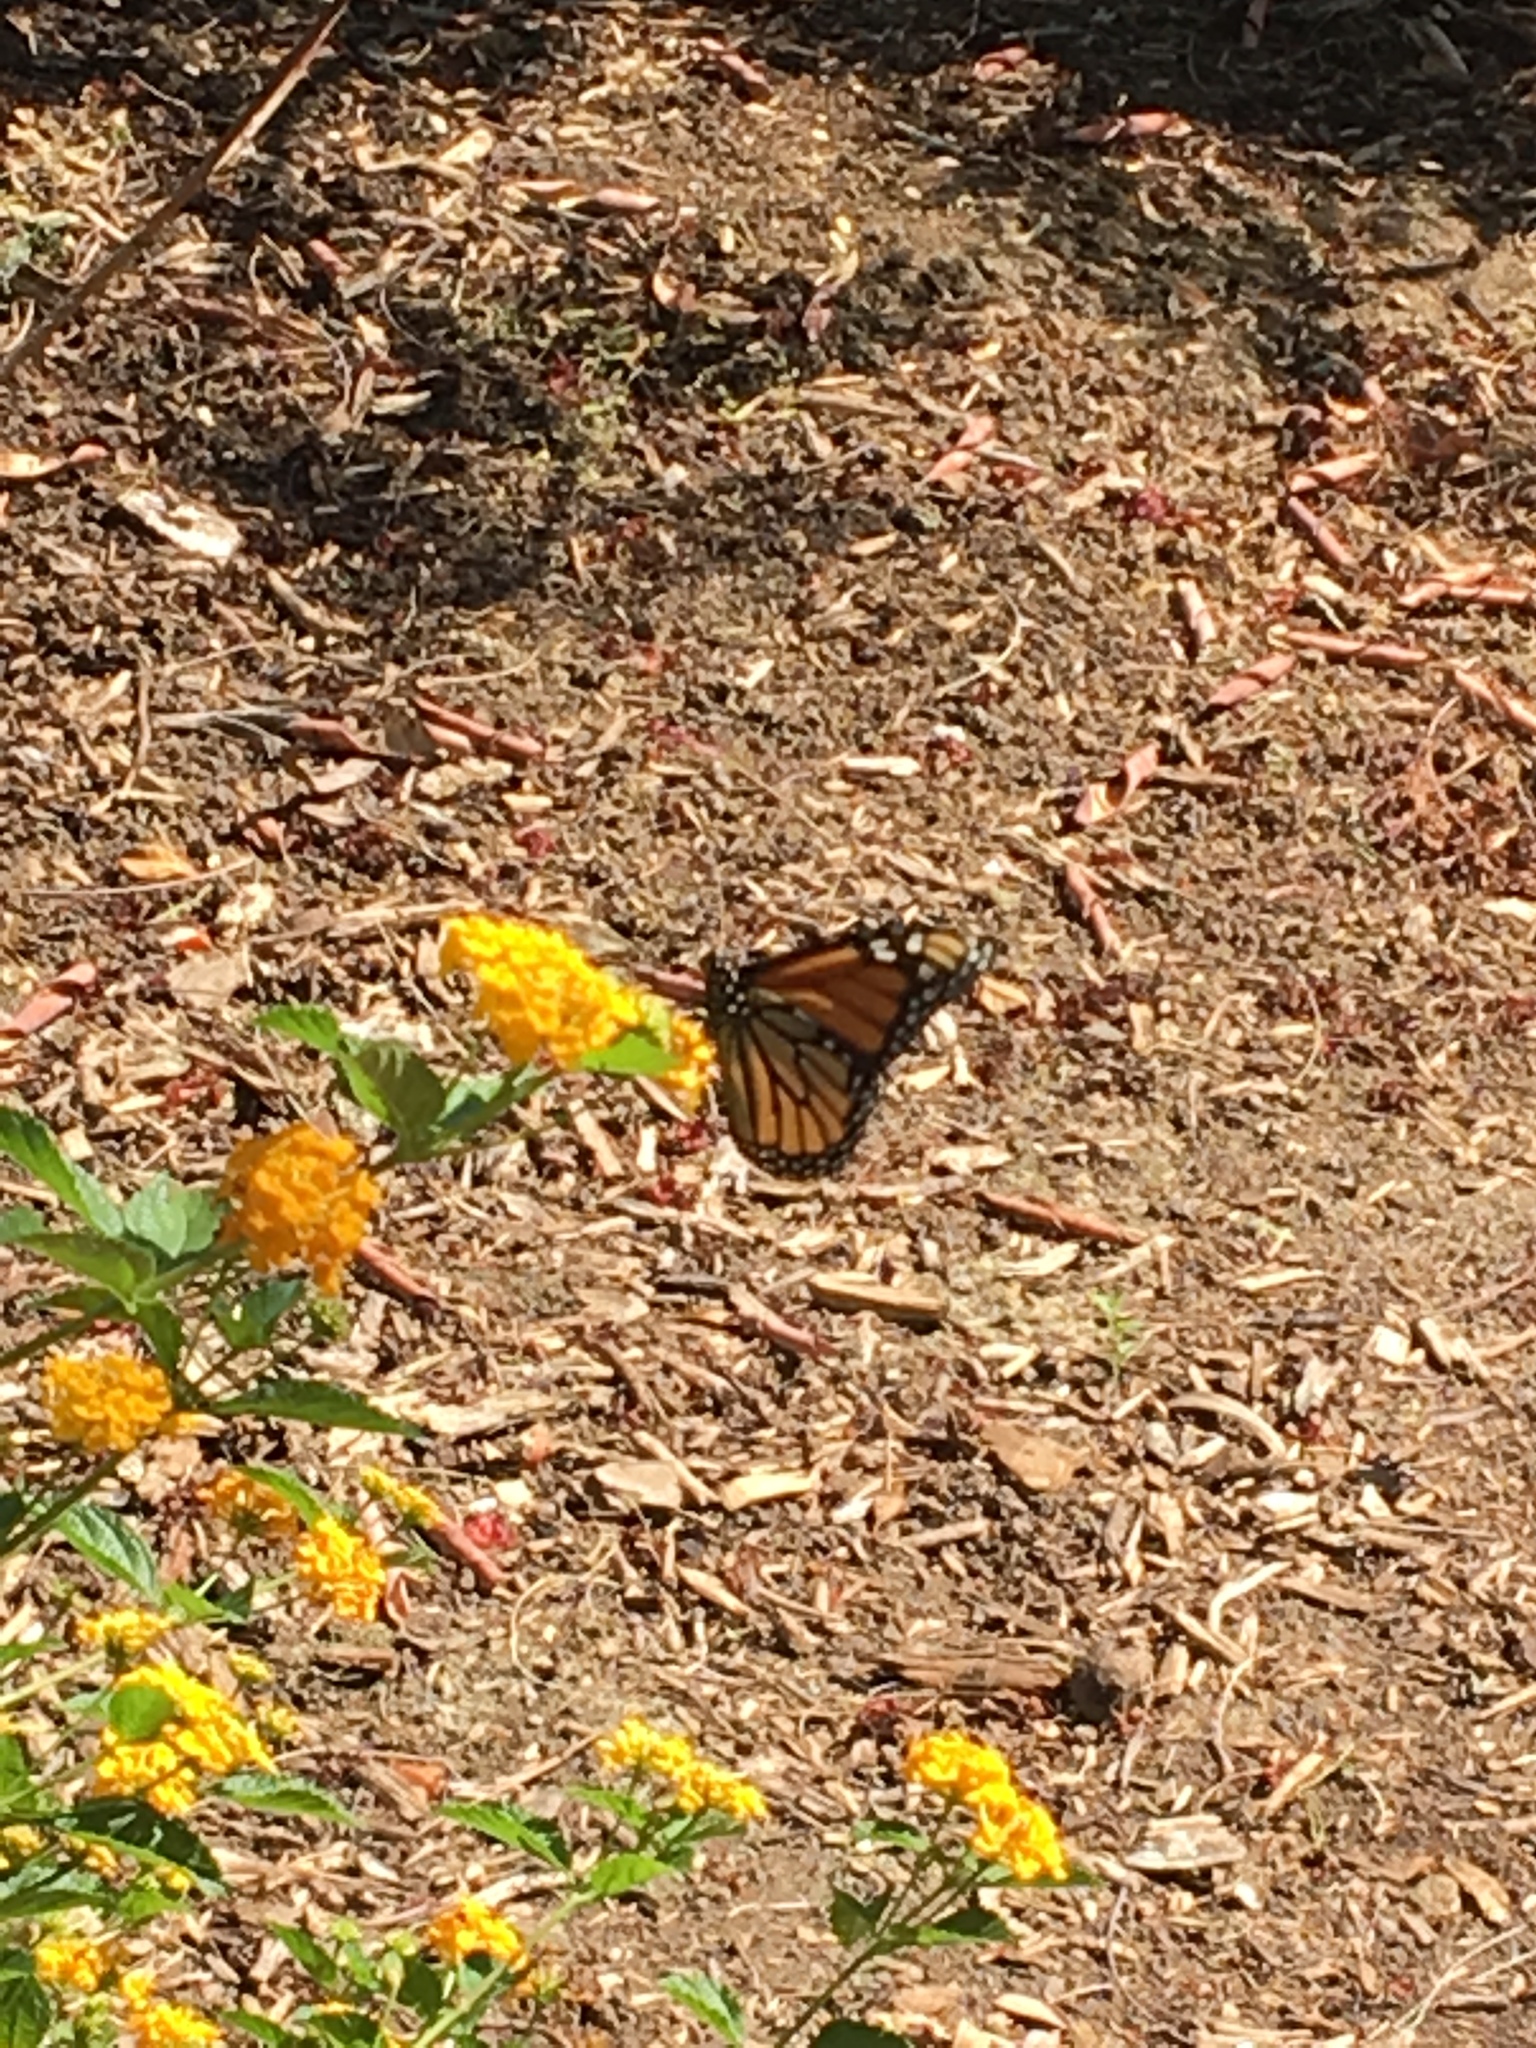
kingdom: Animalia
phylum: Arthropoda
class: Insecta
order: Lepidoptera
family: Nymphalidae
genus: Danaus
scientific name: Danaus plexippus
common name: Monarch
